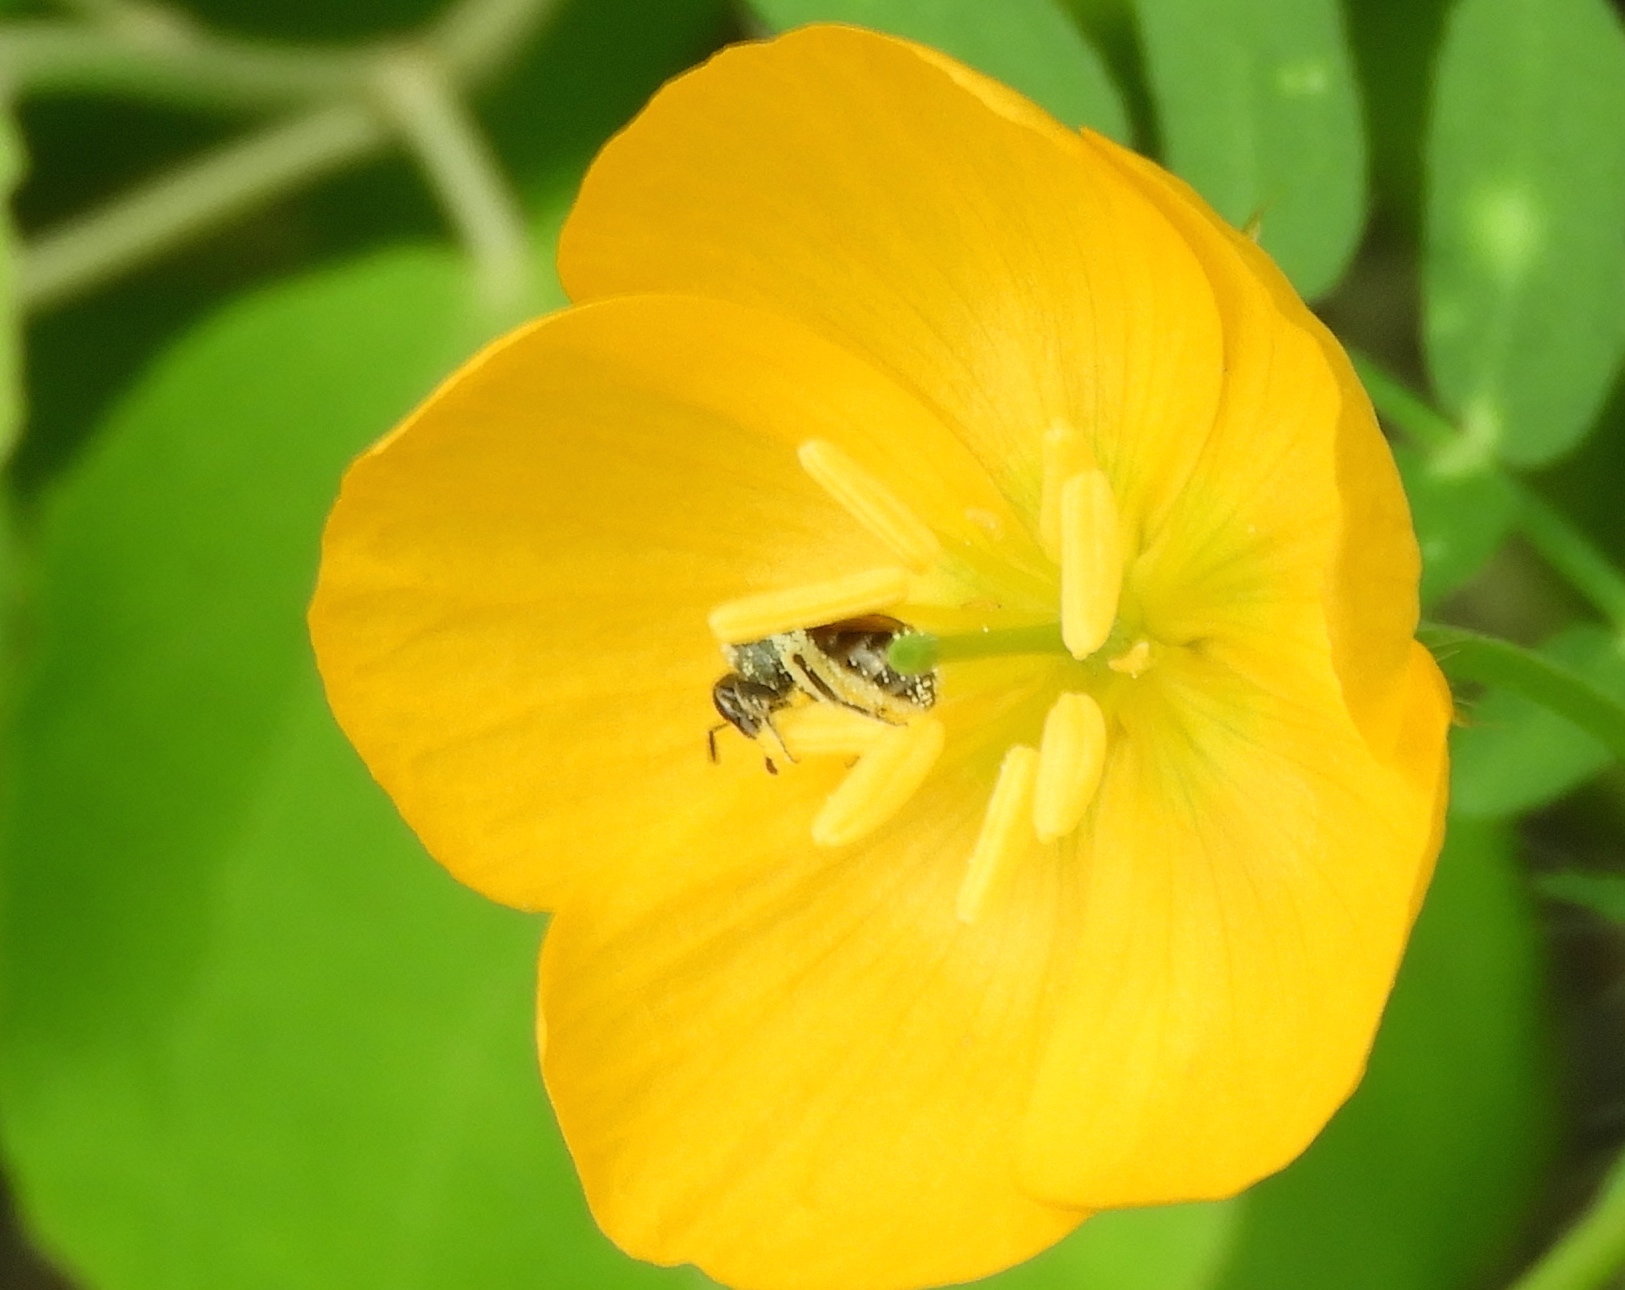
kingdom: Animalia
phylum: Arthropoda
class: Insecta
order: Hymenoptera
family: Halictidae
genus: Lasioglossum
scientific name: Lasioglossum
